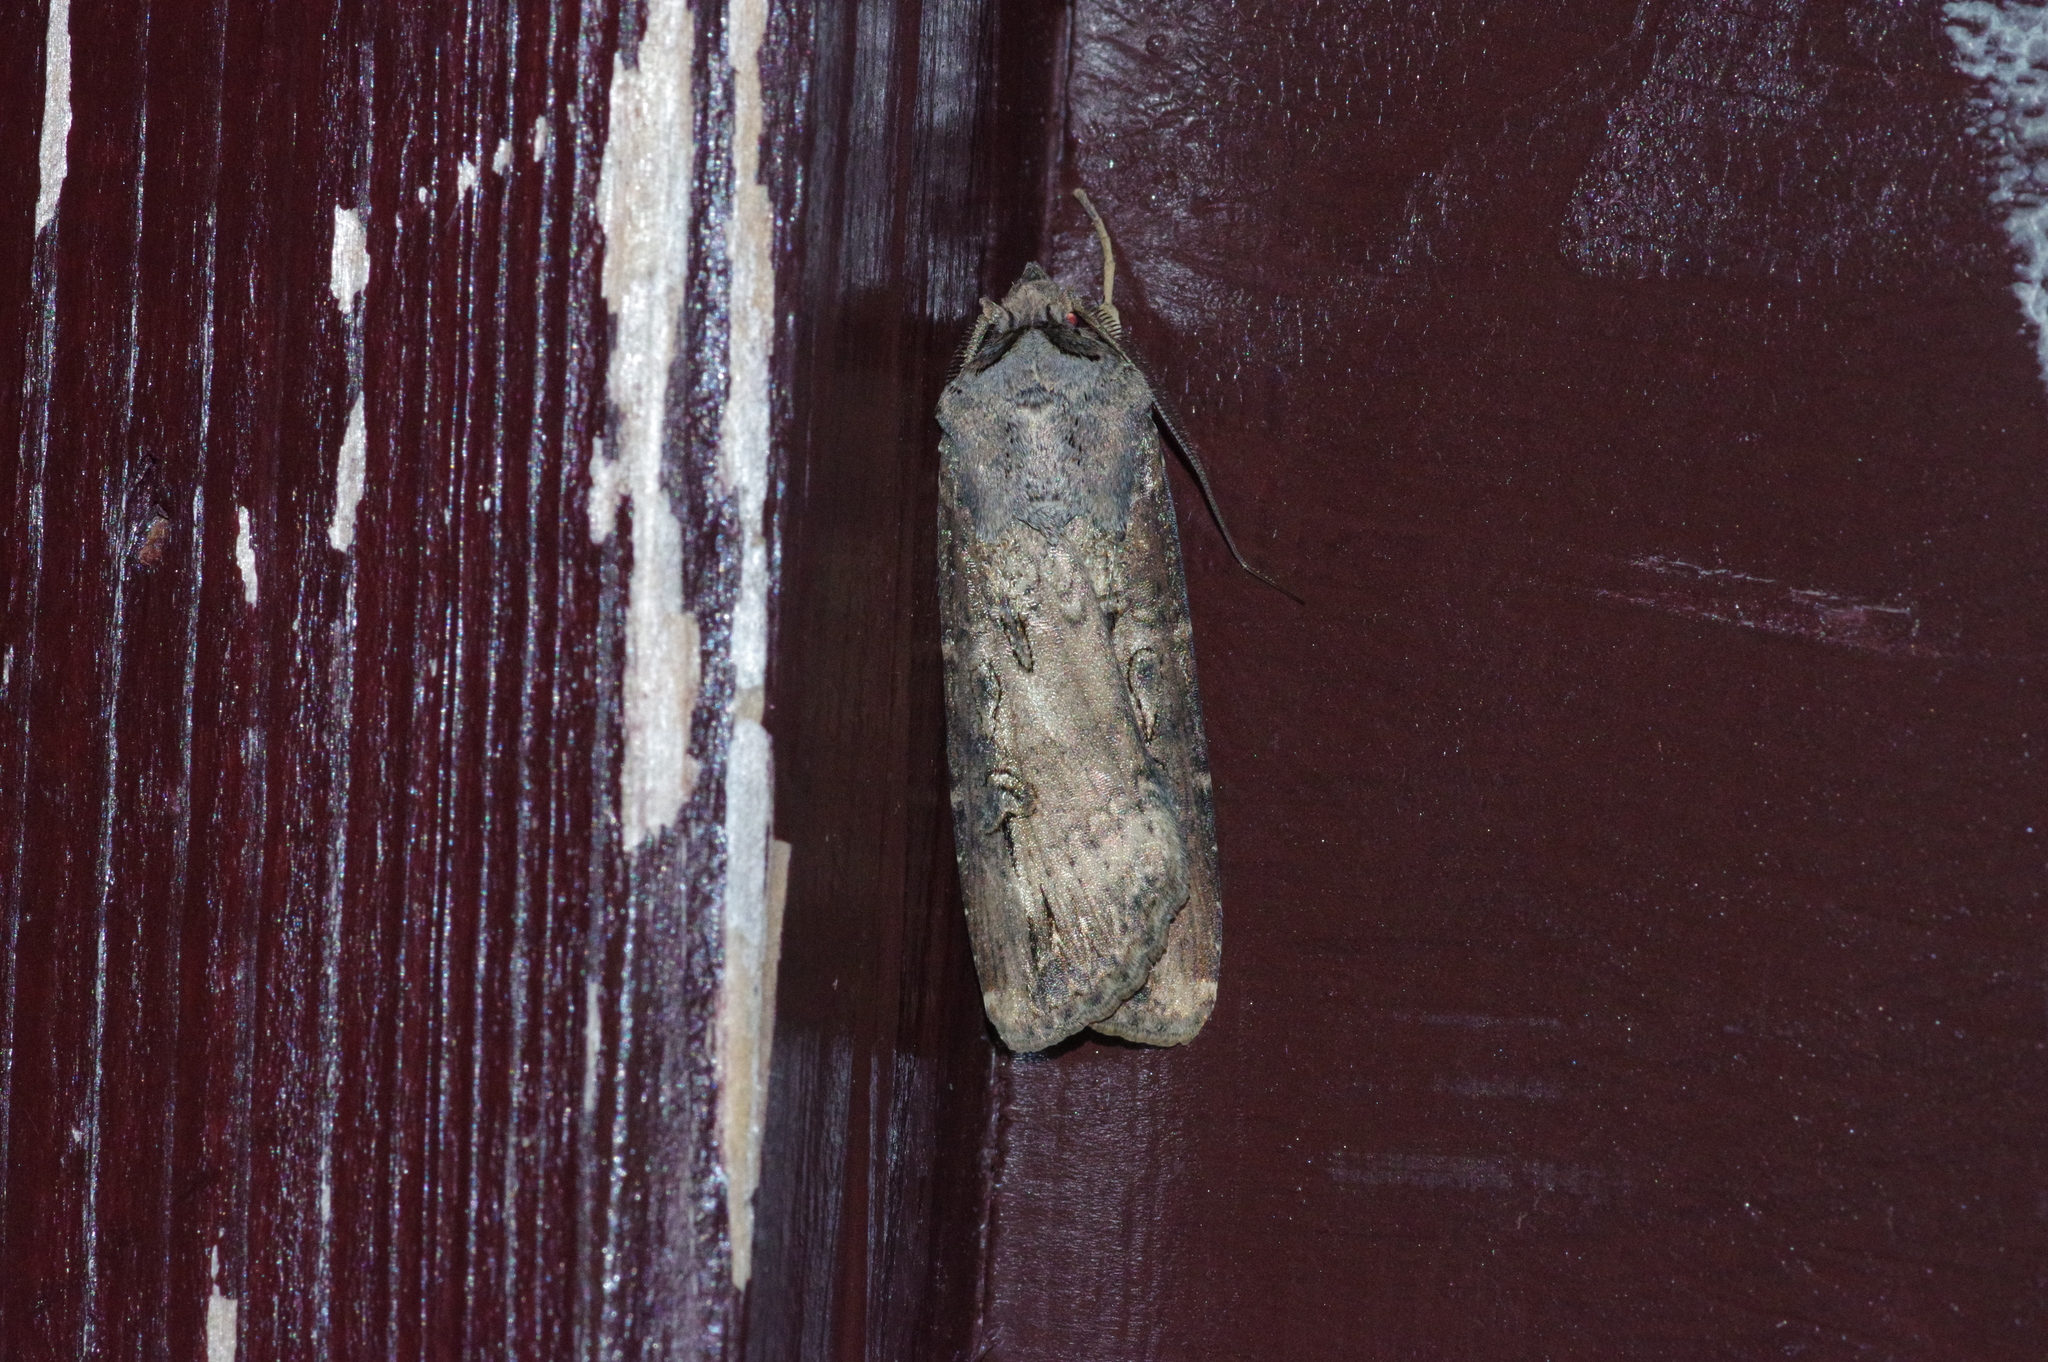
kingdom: Animalia
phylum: Arthropoda
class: Insecta
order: Lepidoptera
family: Noctuidae
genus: Agrotis
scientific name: Agrotis ipsilon
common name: Dark sword-grass
